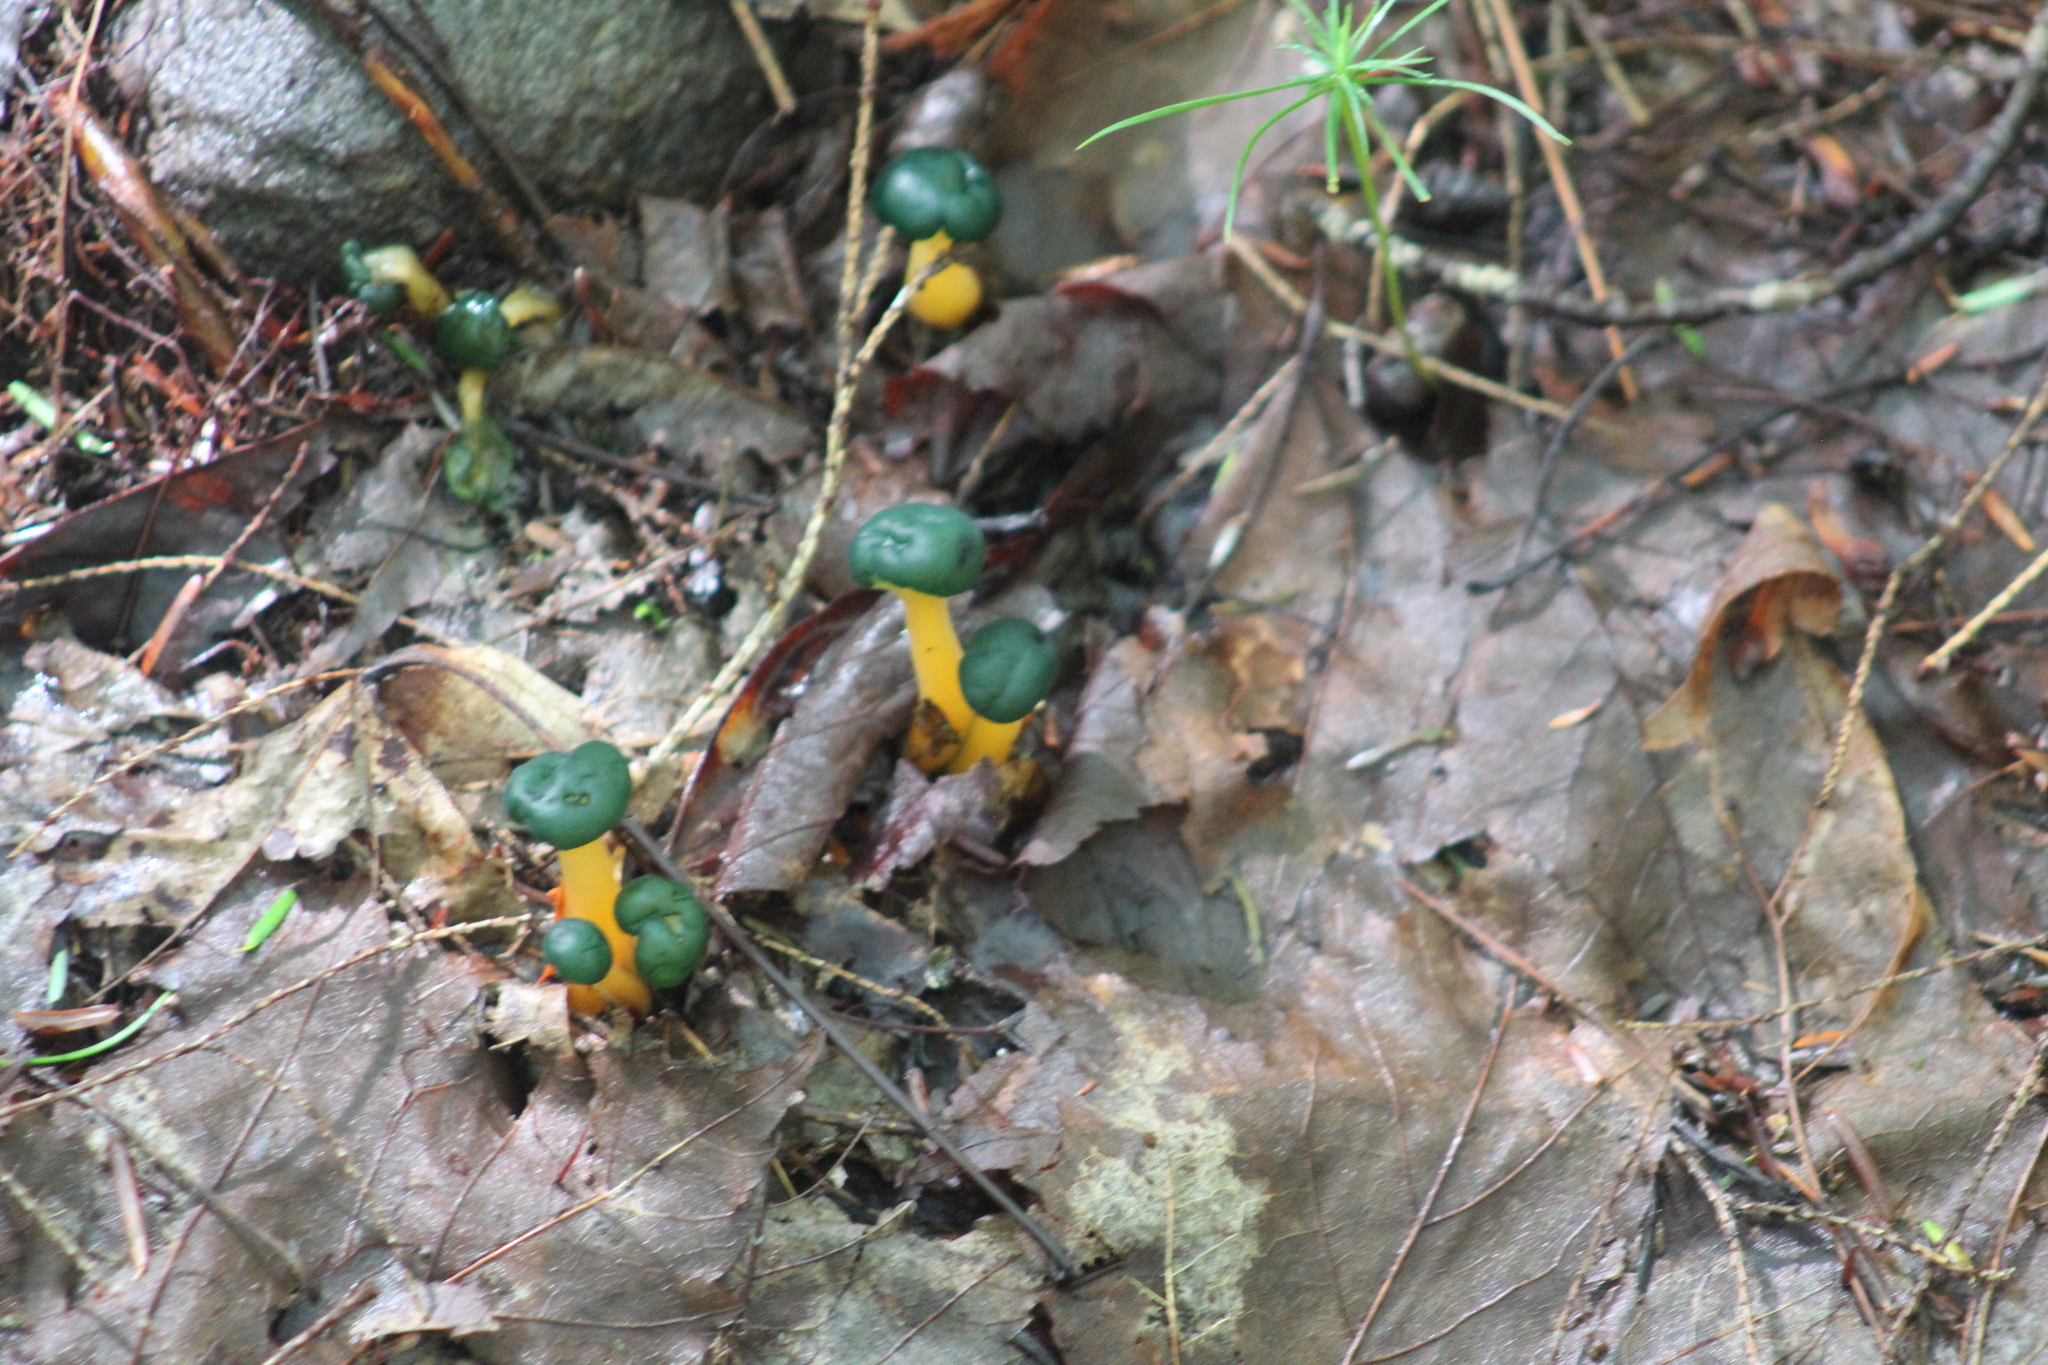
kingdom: Fungi
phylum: Ascomycota
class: Leotiomycetes
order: Leotiales
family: Leotiaceae
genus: Leotia
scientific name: Leotia lubrica
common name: Jellybaby
